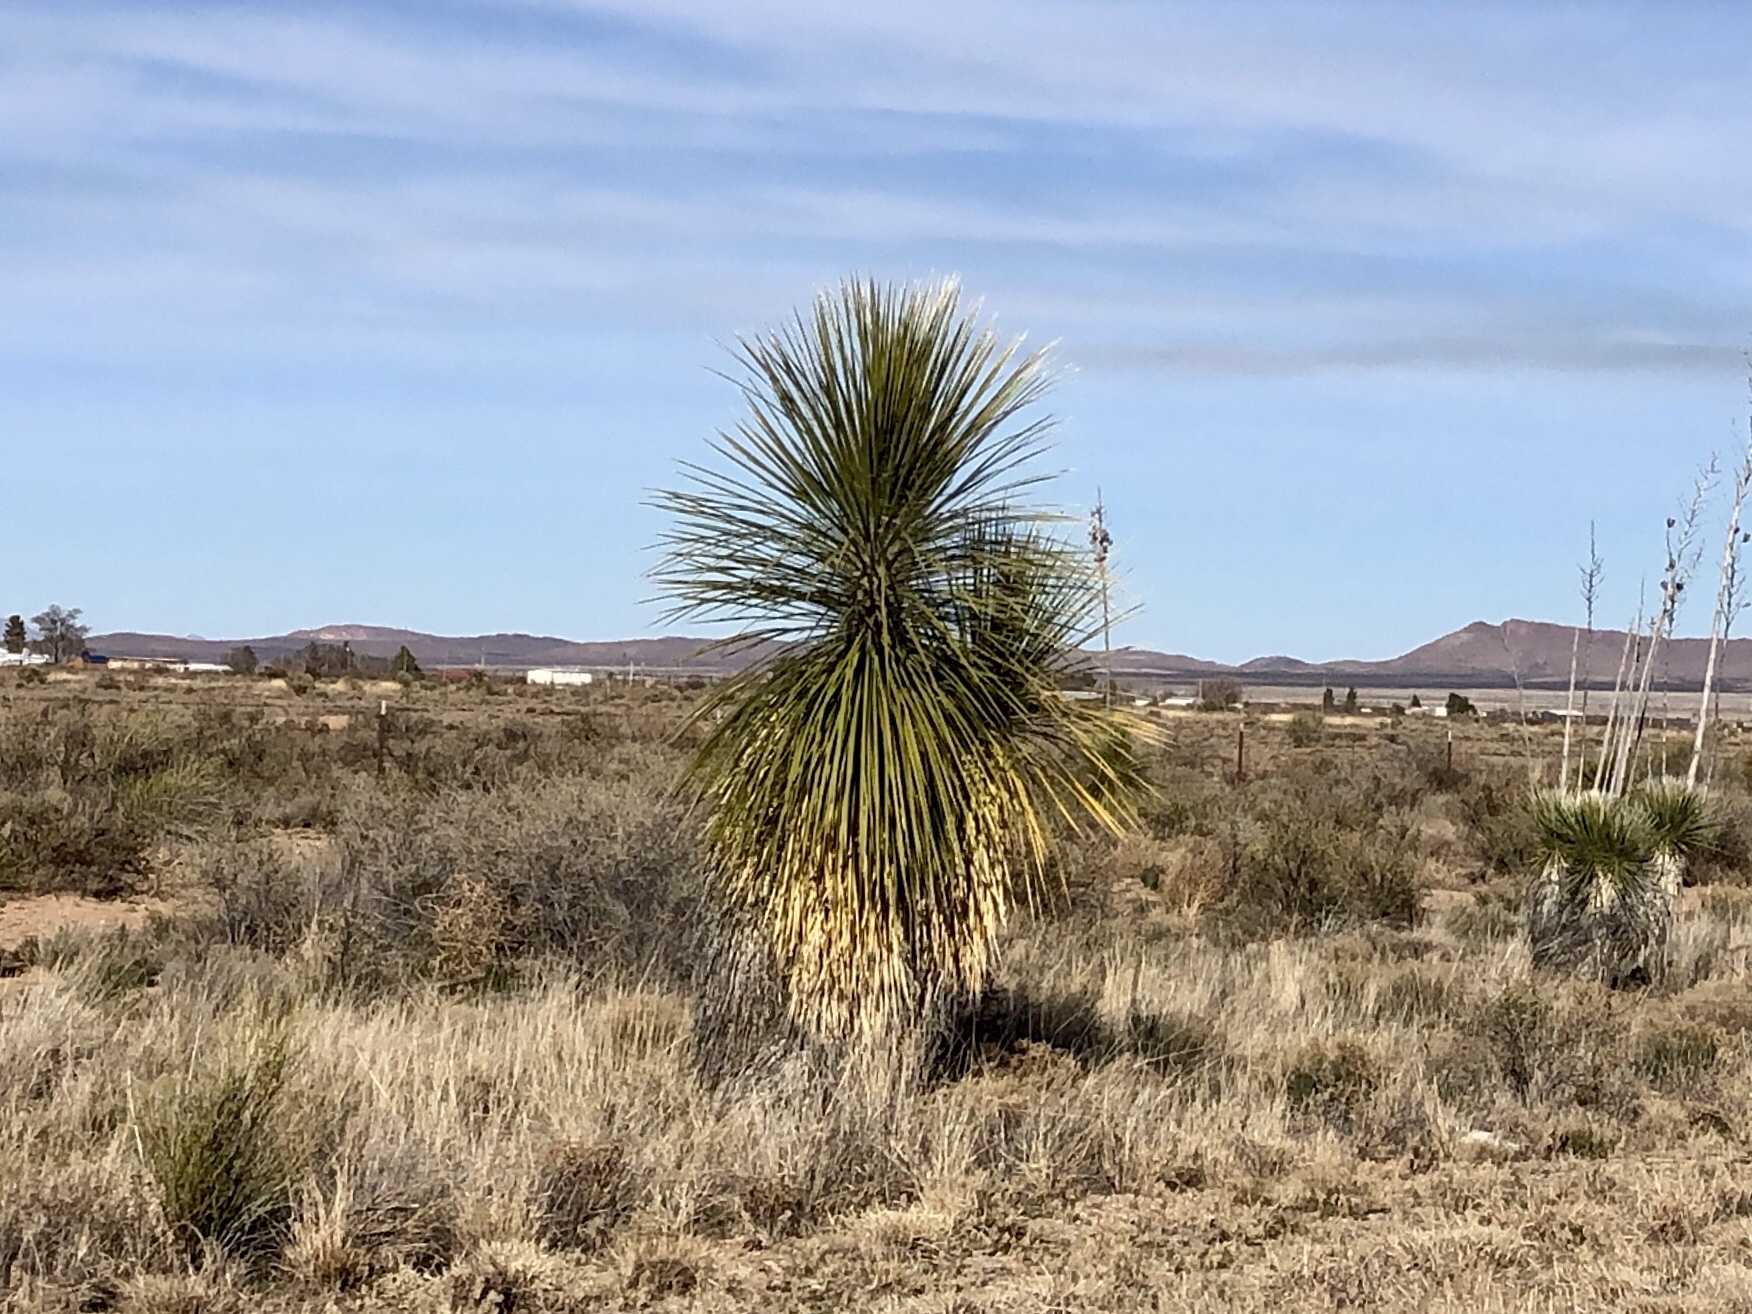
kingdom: Plantae
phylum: Tracheophyta
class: Liliopsida
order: Asparagales
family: Asparagaceae
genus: Yucca
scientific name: Yucca elata
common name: Palmella
